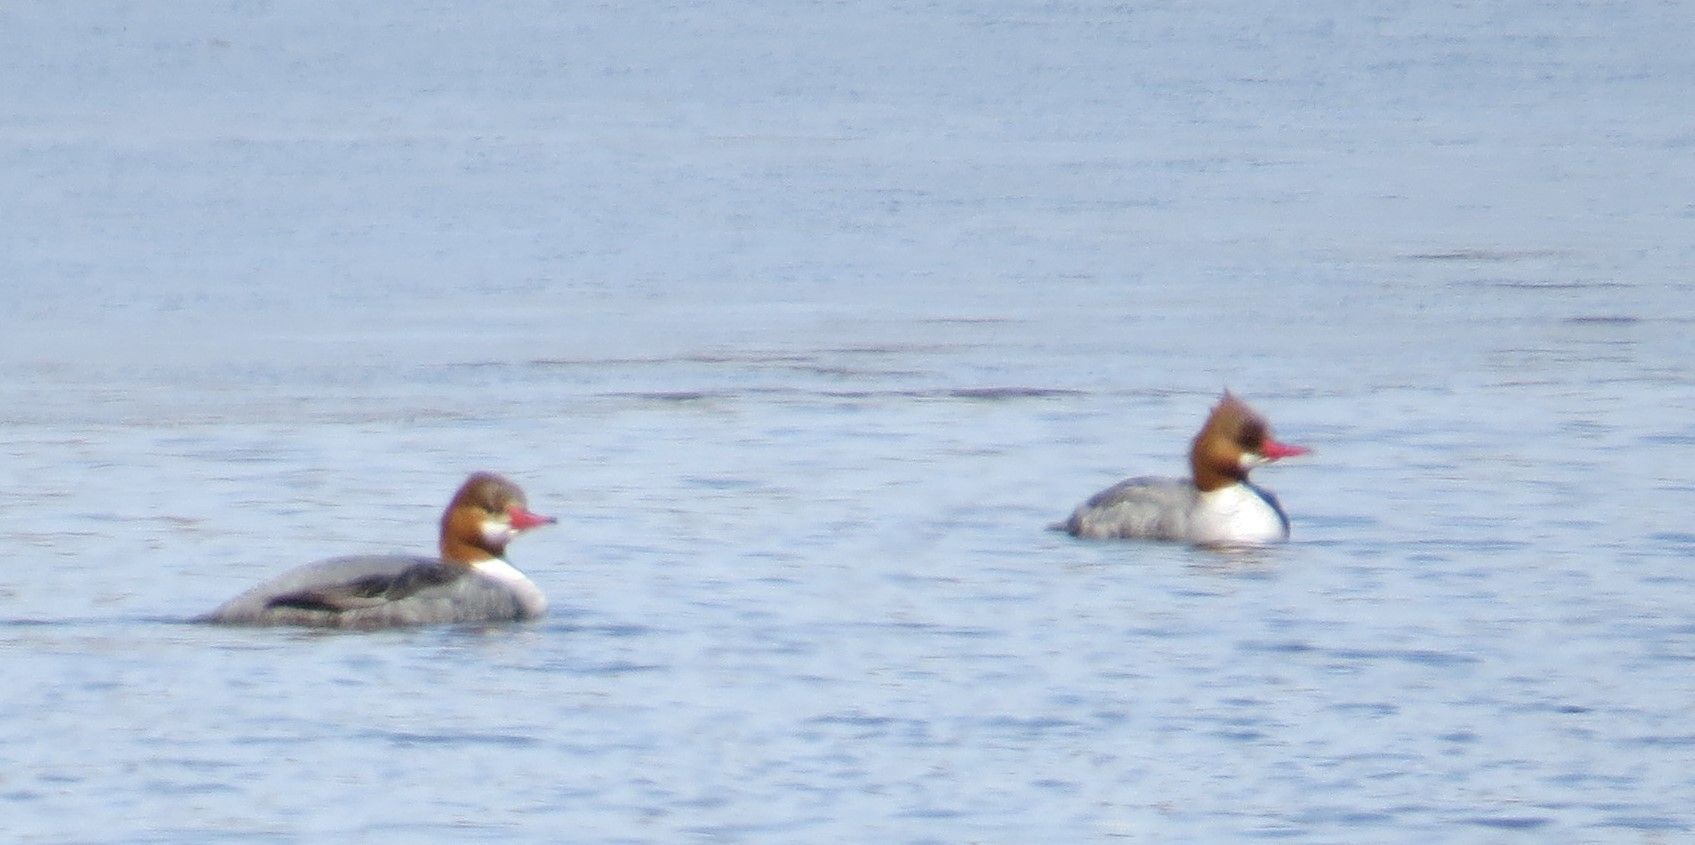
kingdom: Animalia
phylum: Chordata
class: Aves
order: Anseriformes
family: Anatidae
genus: Mergus
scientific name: Mergus merganser
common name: Common merganser
